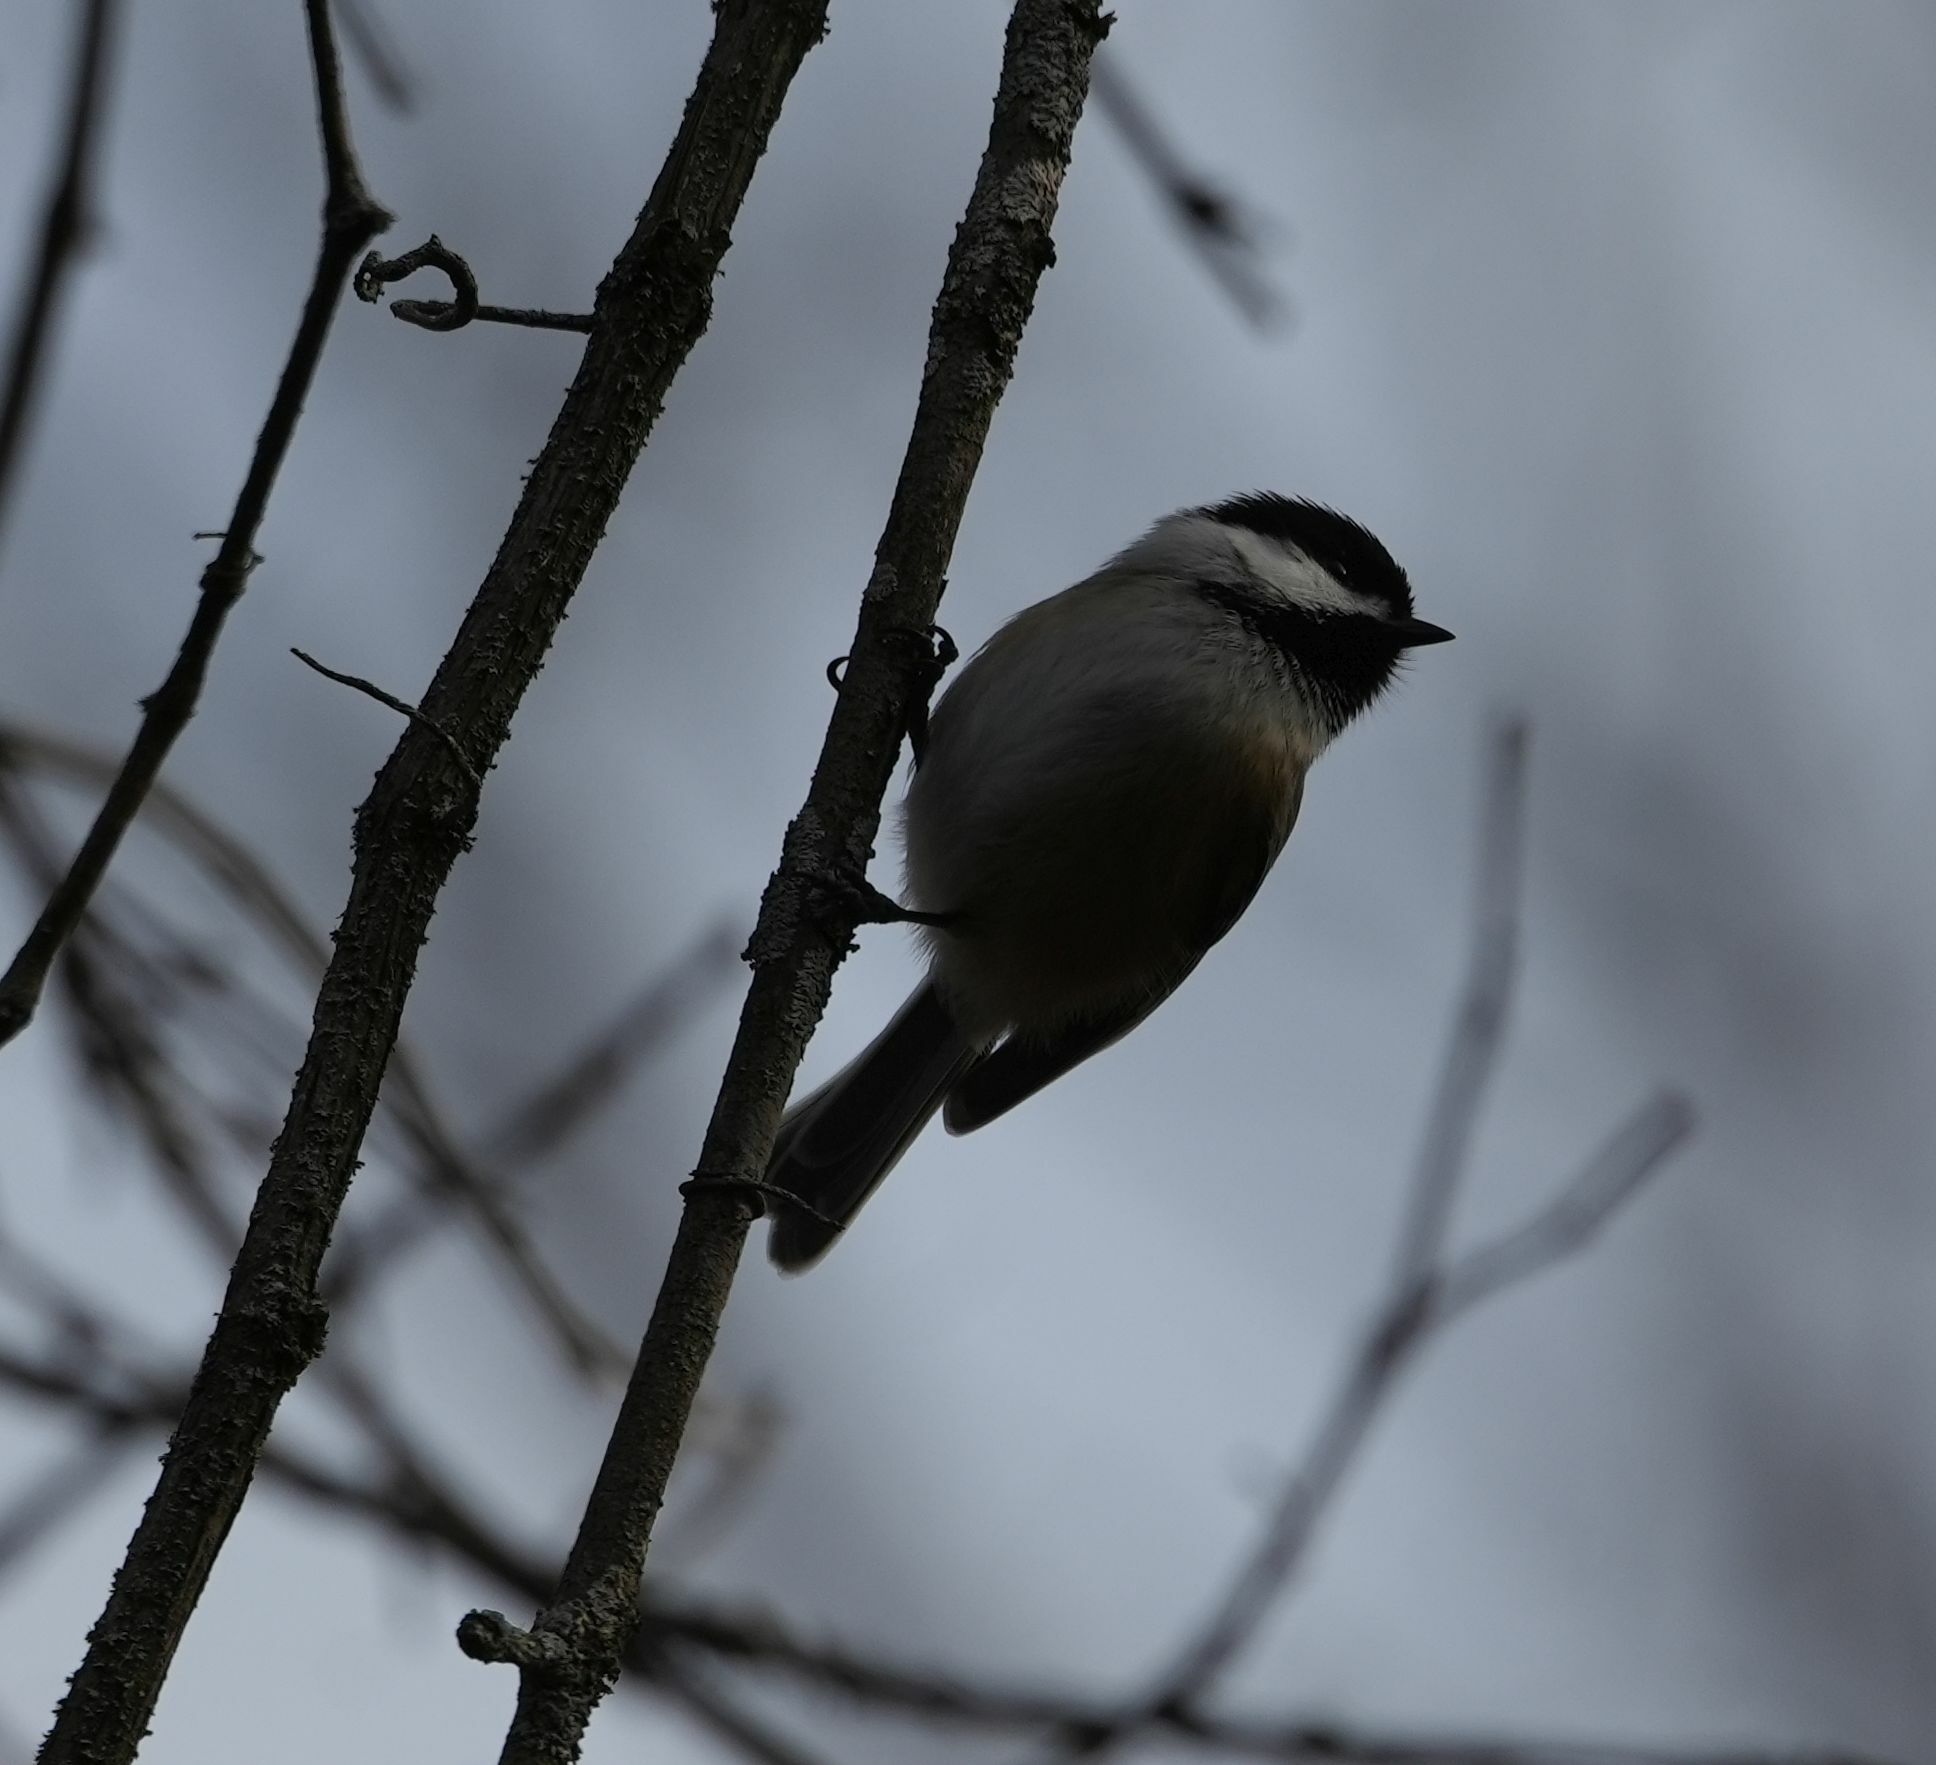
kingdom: Animalia
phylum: Chordata
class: Aves
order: Passeriformes
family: Paridae
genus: Poecile
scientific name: Poecile atricapillus
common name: Black-capped chickadee
